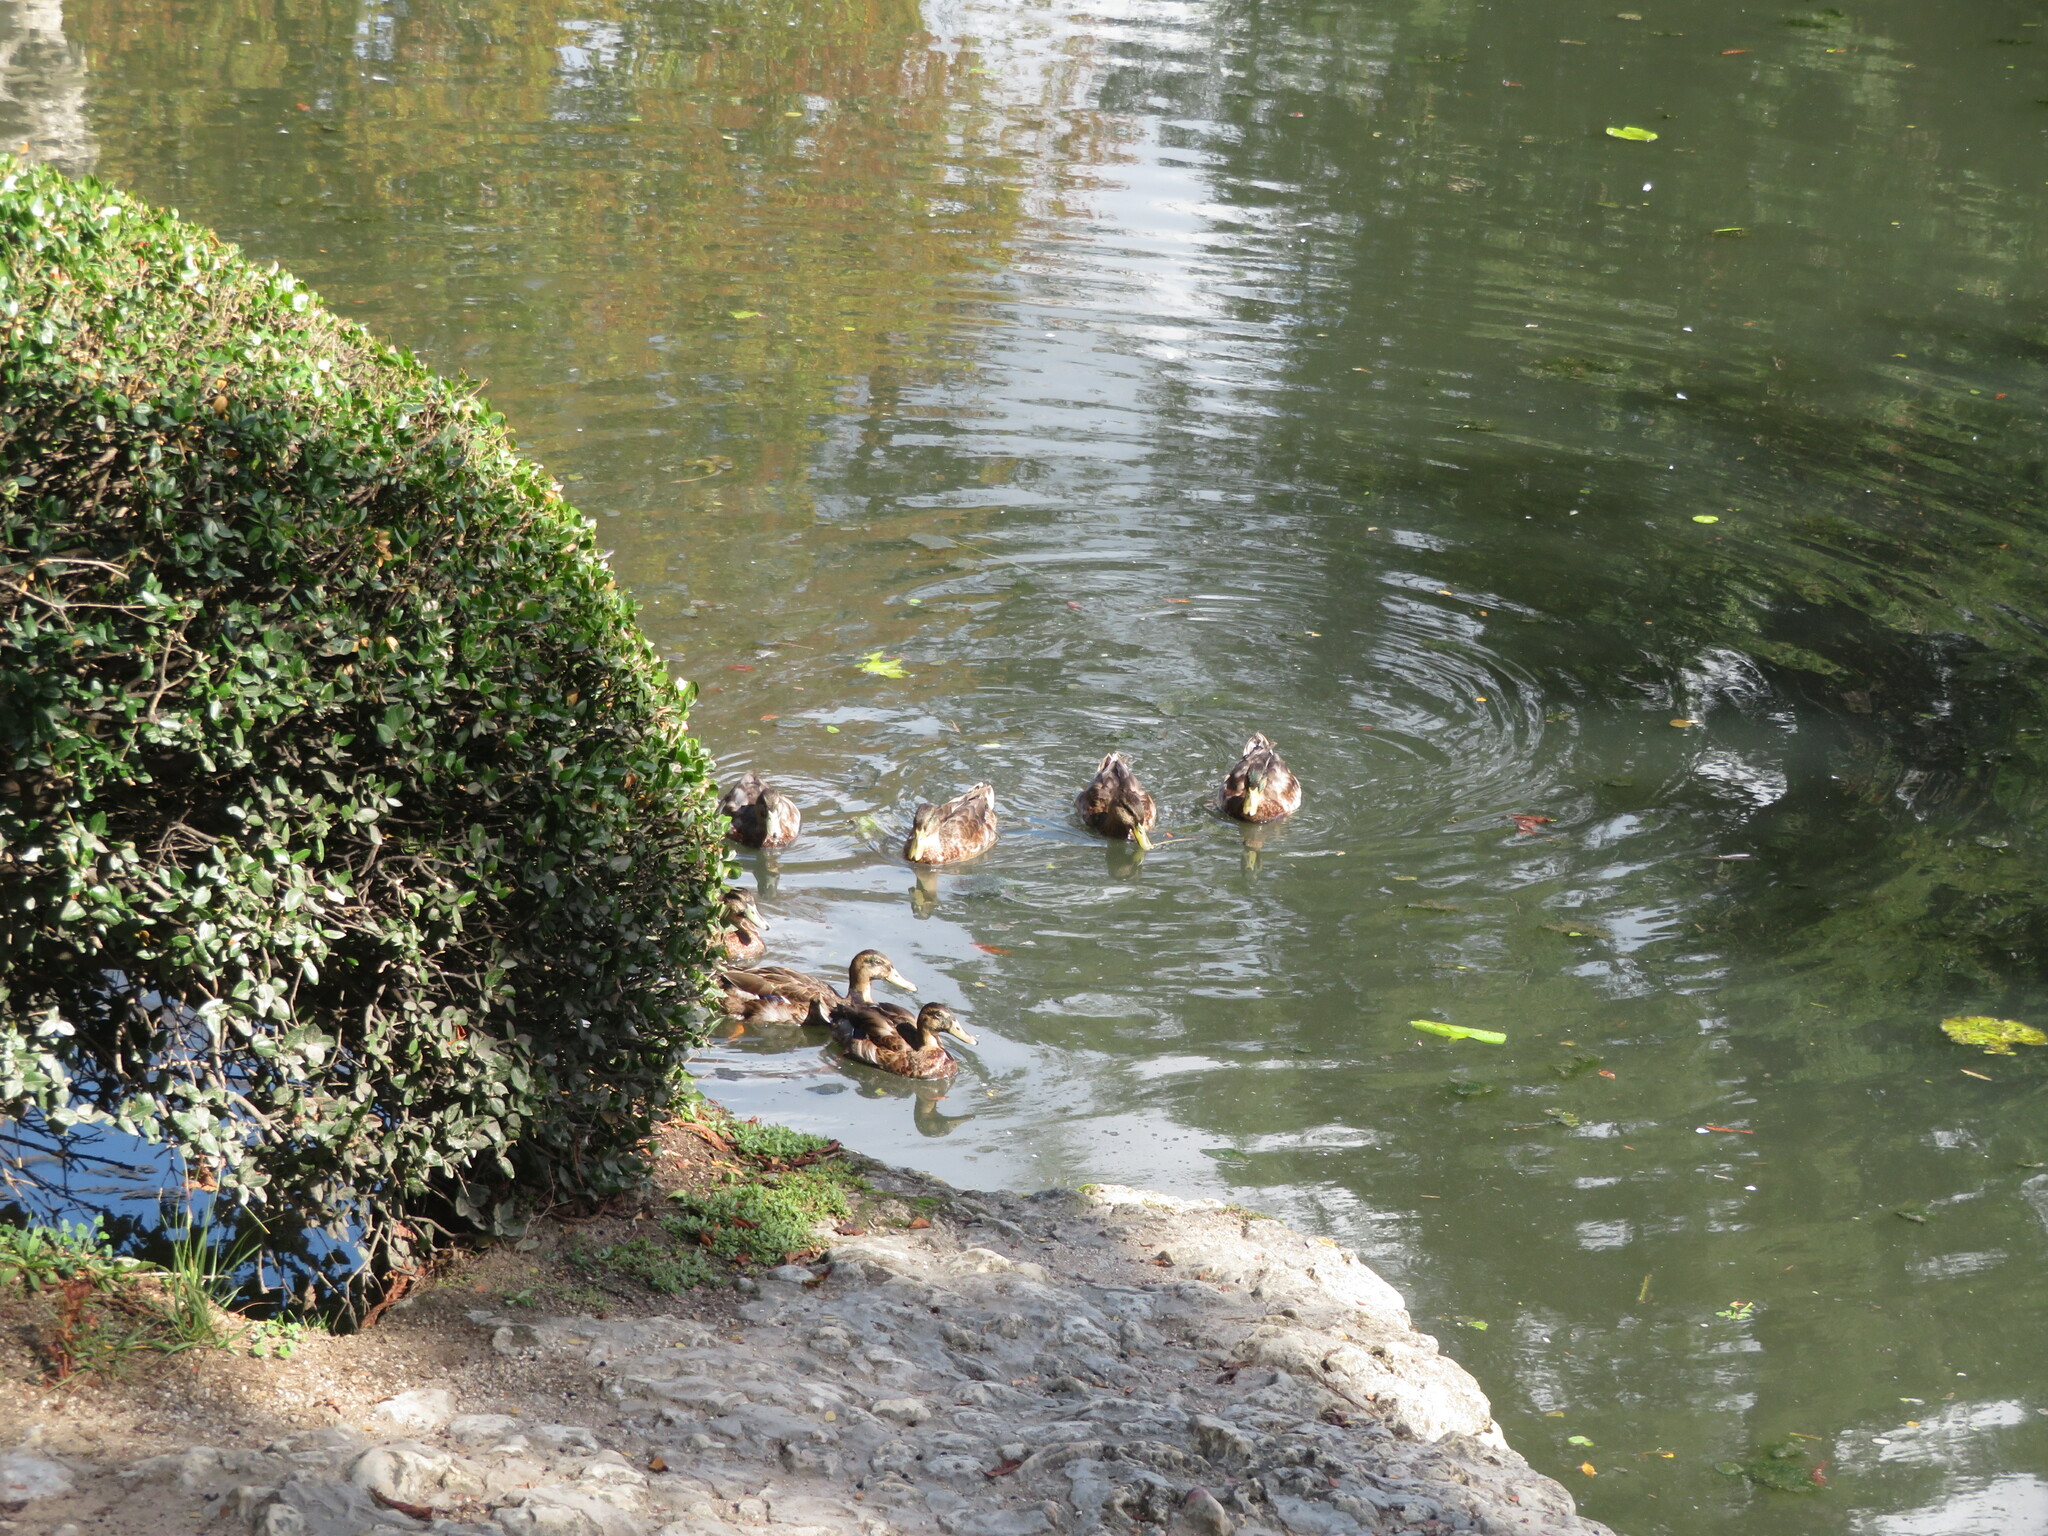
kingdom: Animalia
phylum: Chordata
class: Aves
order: Anseriformes
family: Anatidae
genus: Anas
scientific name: Anas platyrhynchos
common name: Mallard
